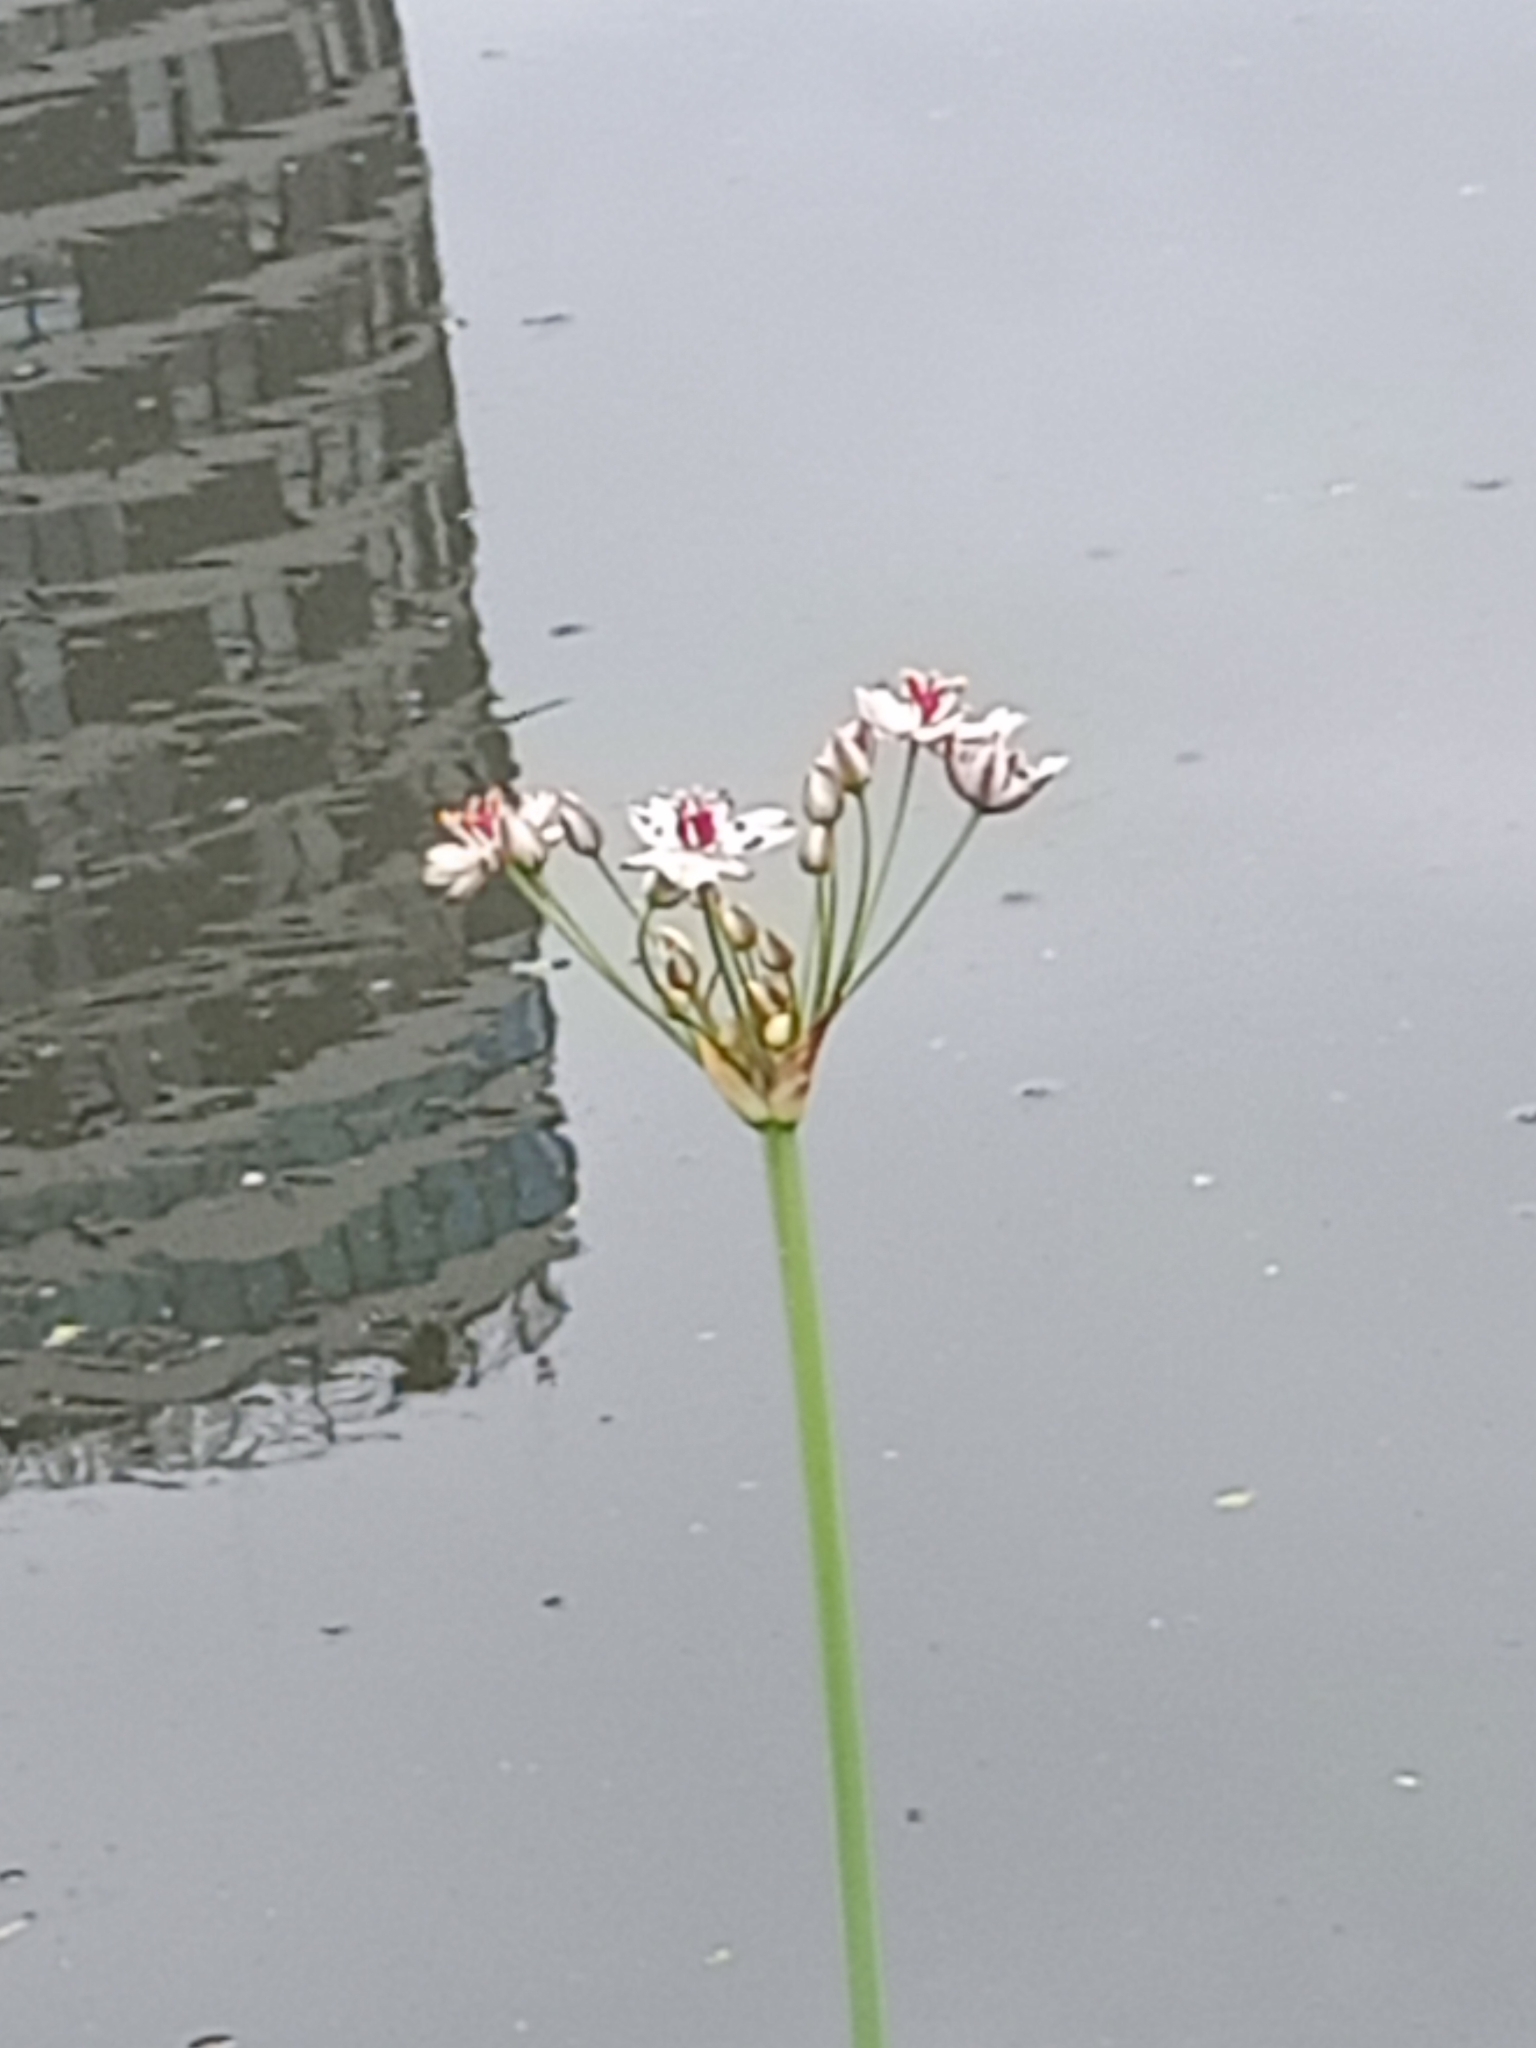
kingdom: Plantae
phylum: Tracheophyta
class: Liliopsida
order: Alismatales
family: Butomaceae
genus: Butomus
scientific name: Butomus umbellatus
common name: Flowering-rush
